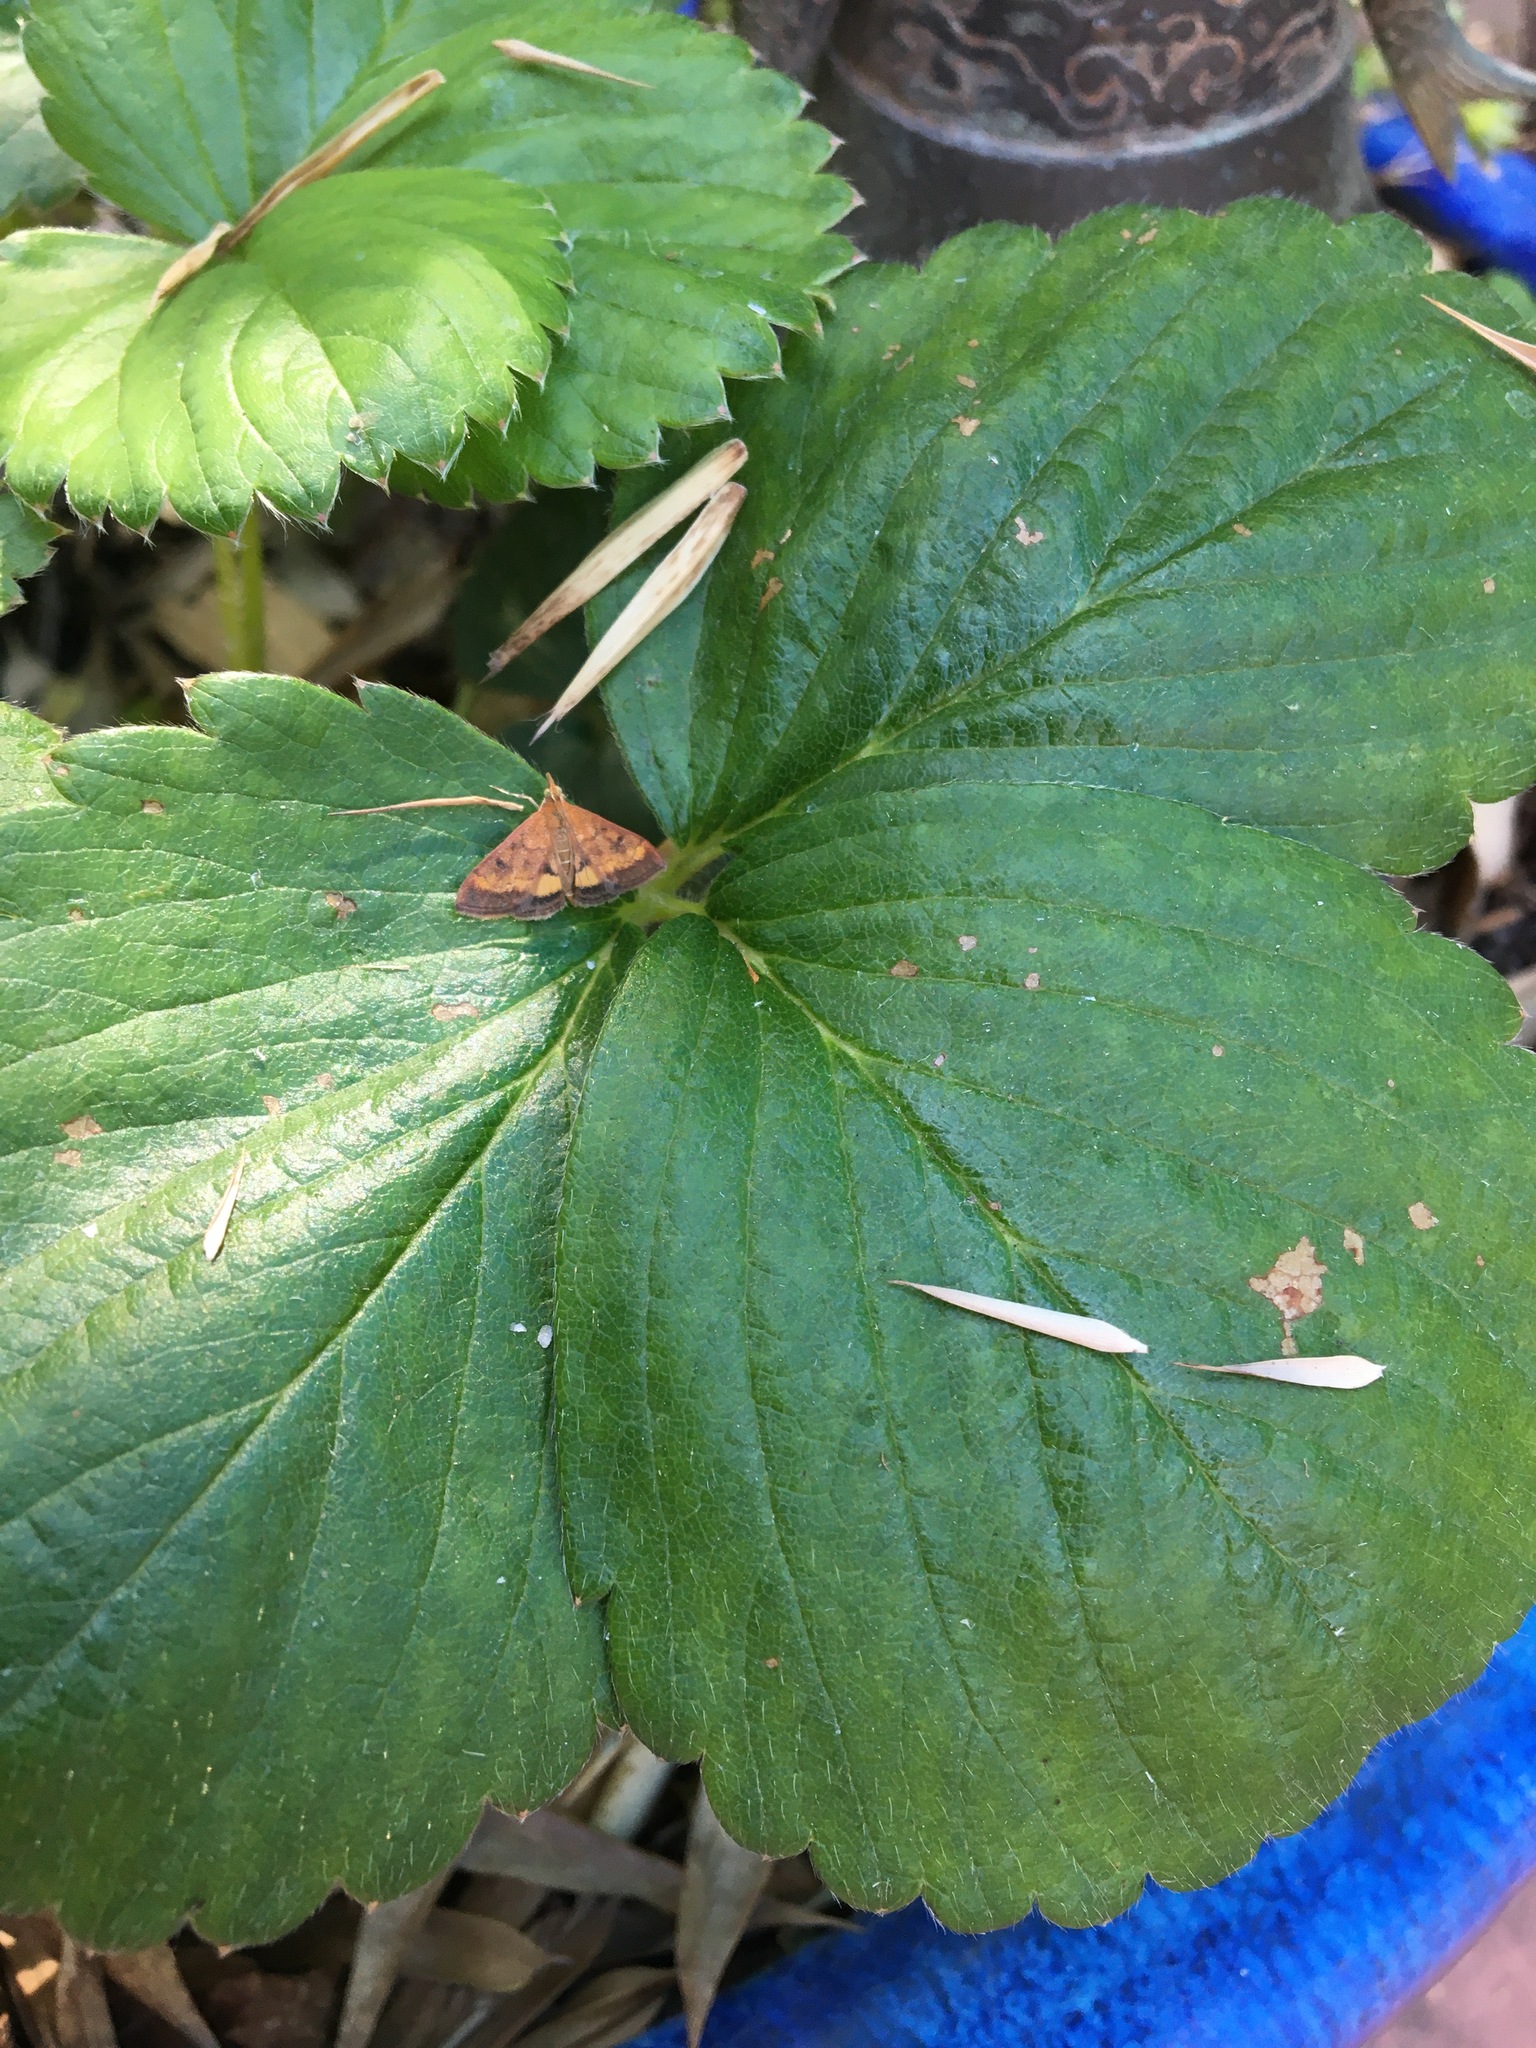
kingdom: Animalia
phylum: Arthropoda
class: Insecta
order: Lepidoptera
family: Crambidae
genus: Pyrausta
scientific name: Pyrausta californicalis
